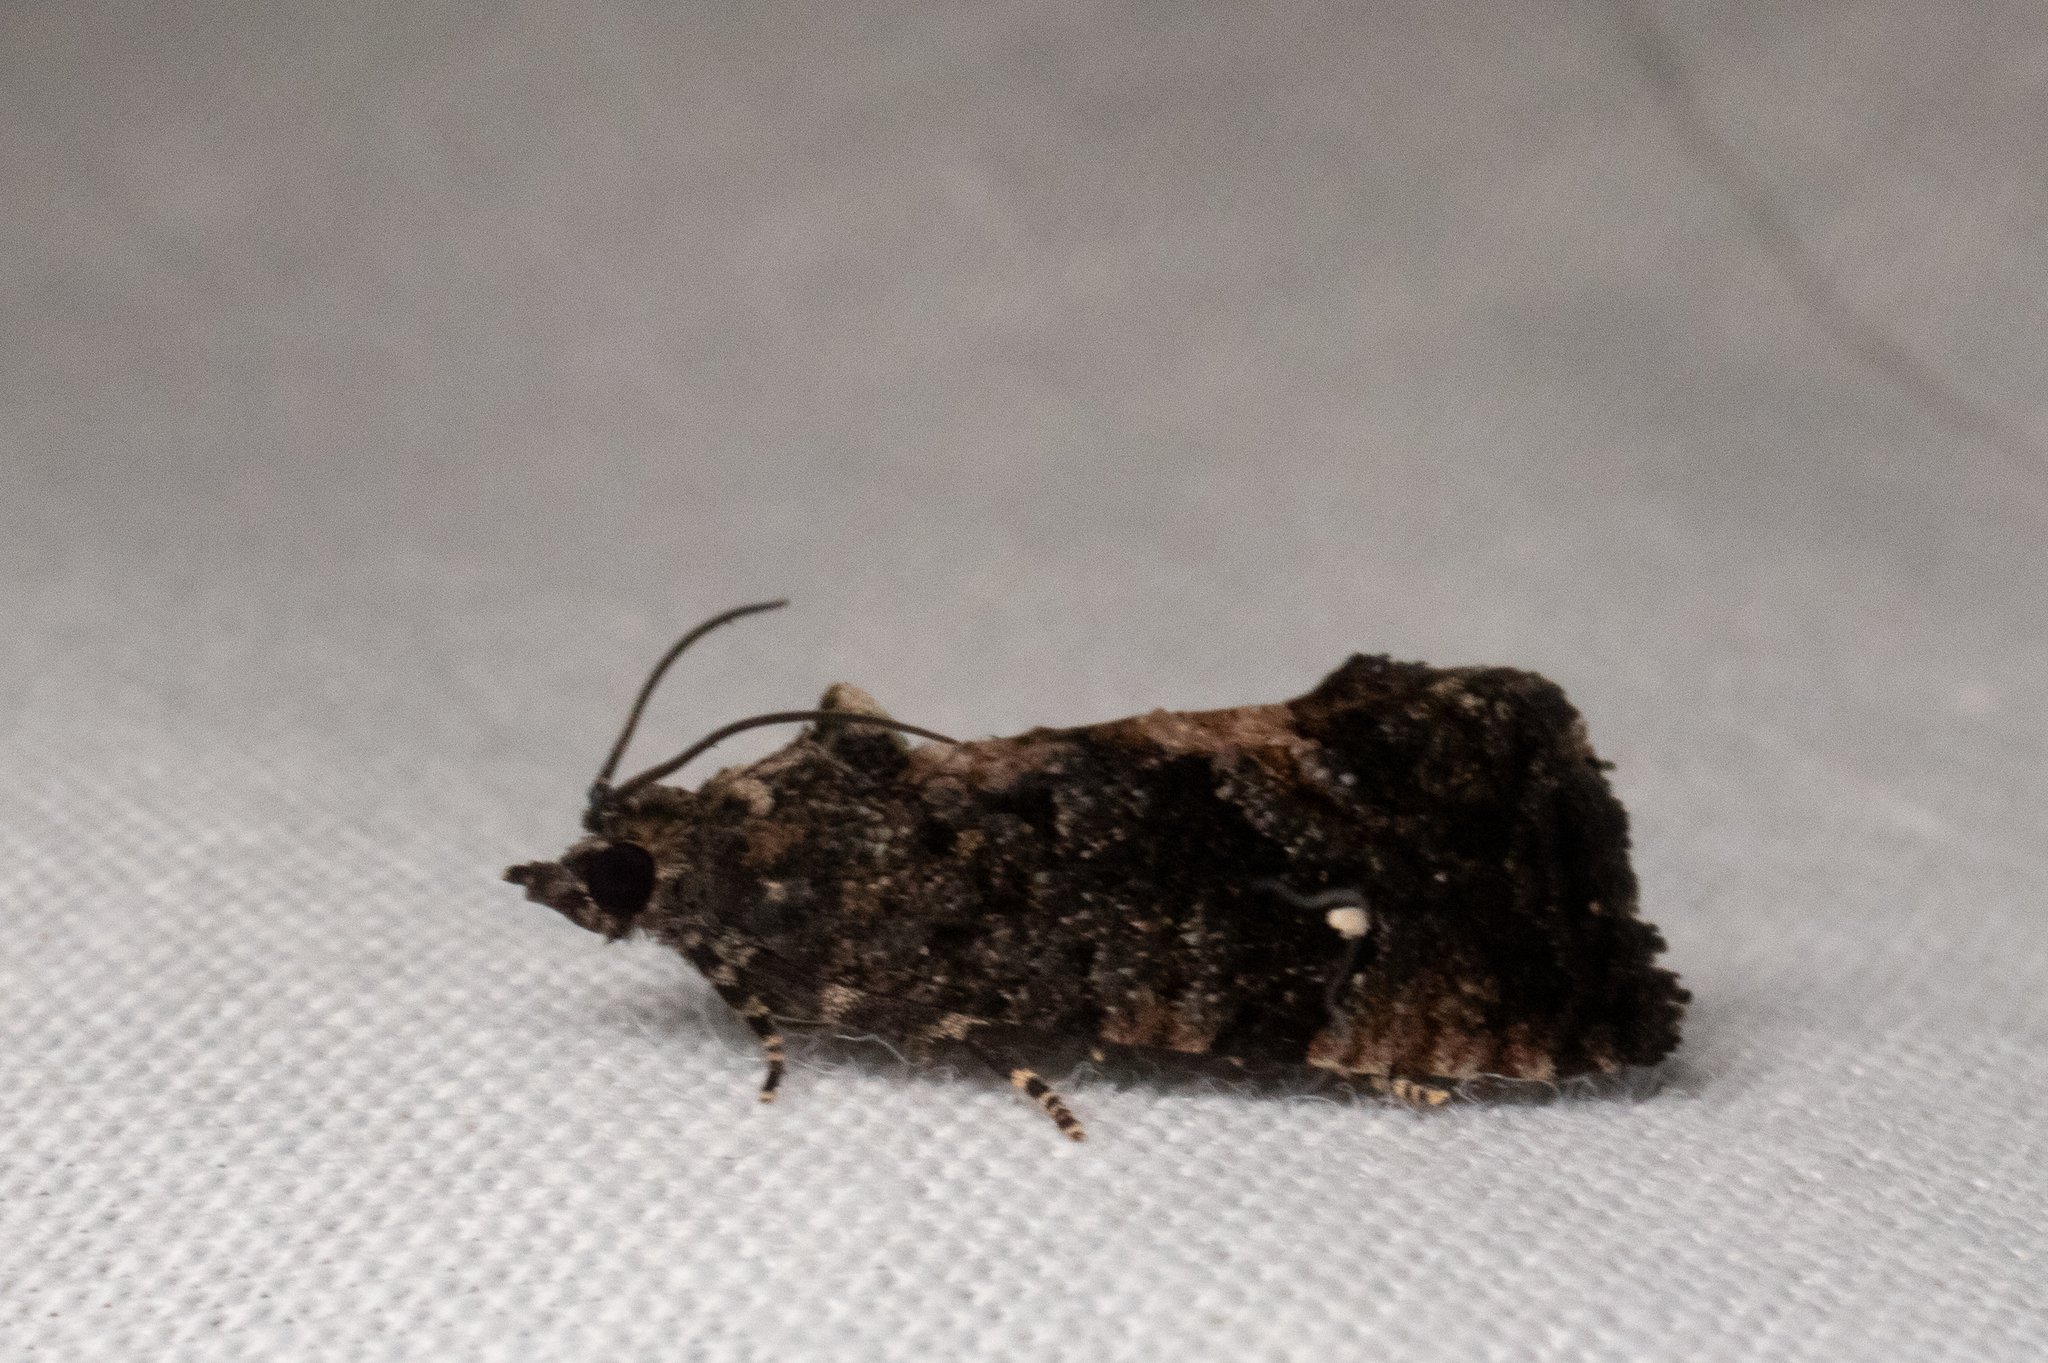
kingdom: Animalia
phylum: Arthropoda
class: Insecta
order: Lepidoptera
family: Tortricidae
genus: Gymnandrosoma
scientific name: Gymnandrosoma punctidiscanum
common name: Dotted ecdytolopha moth
